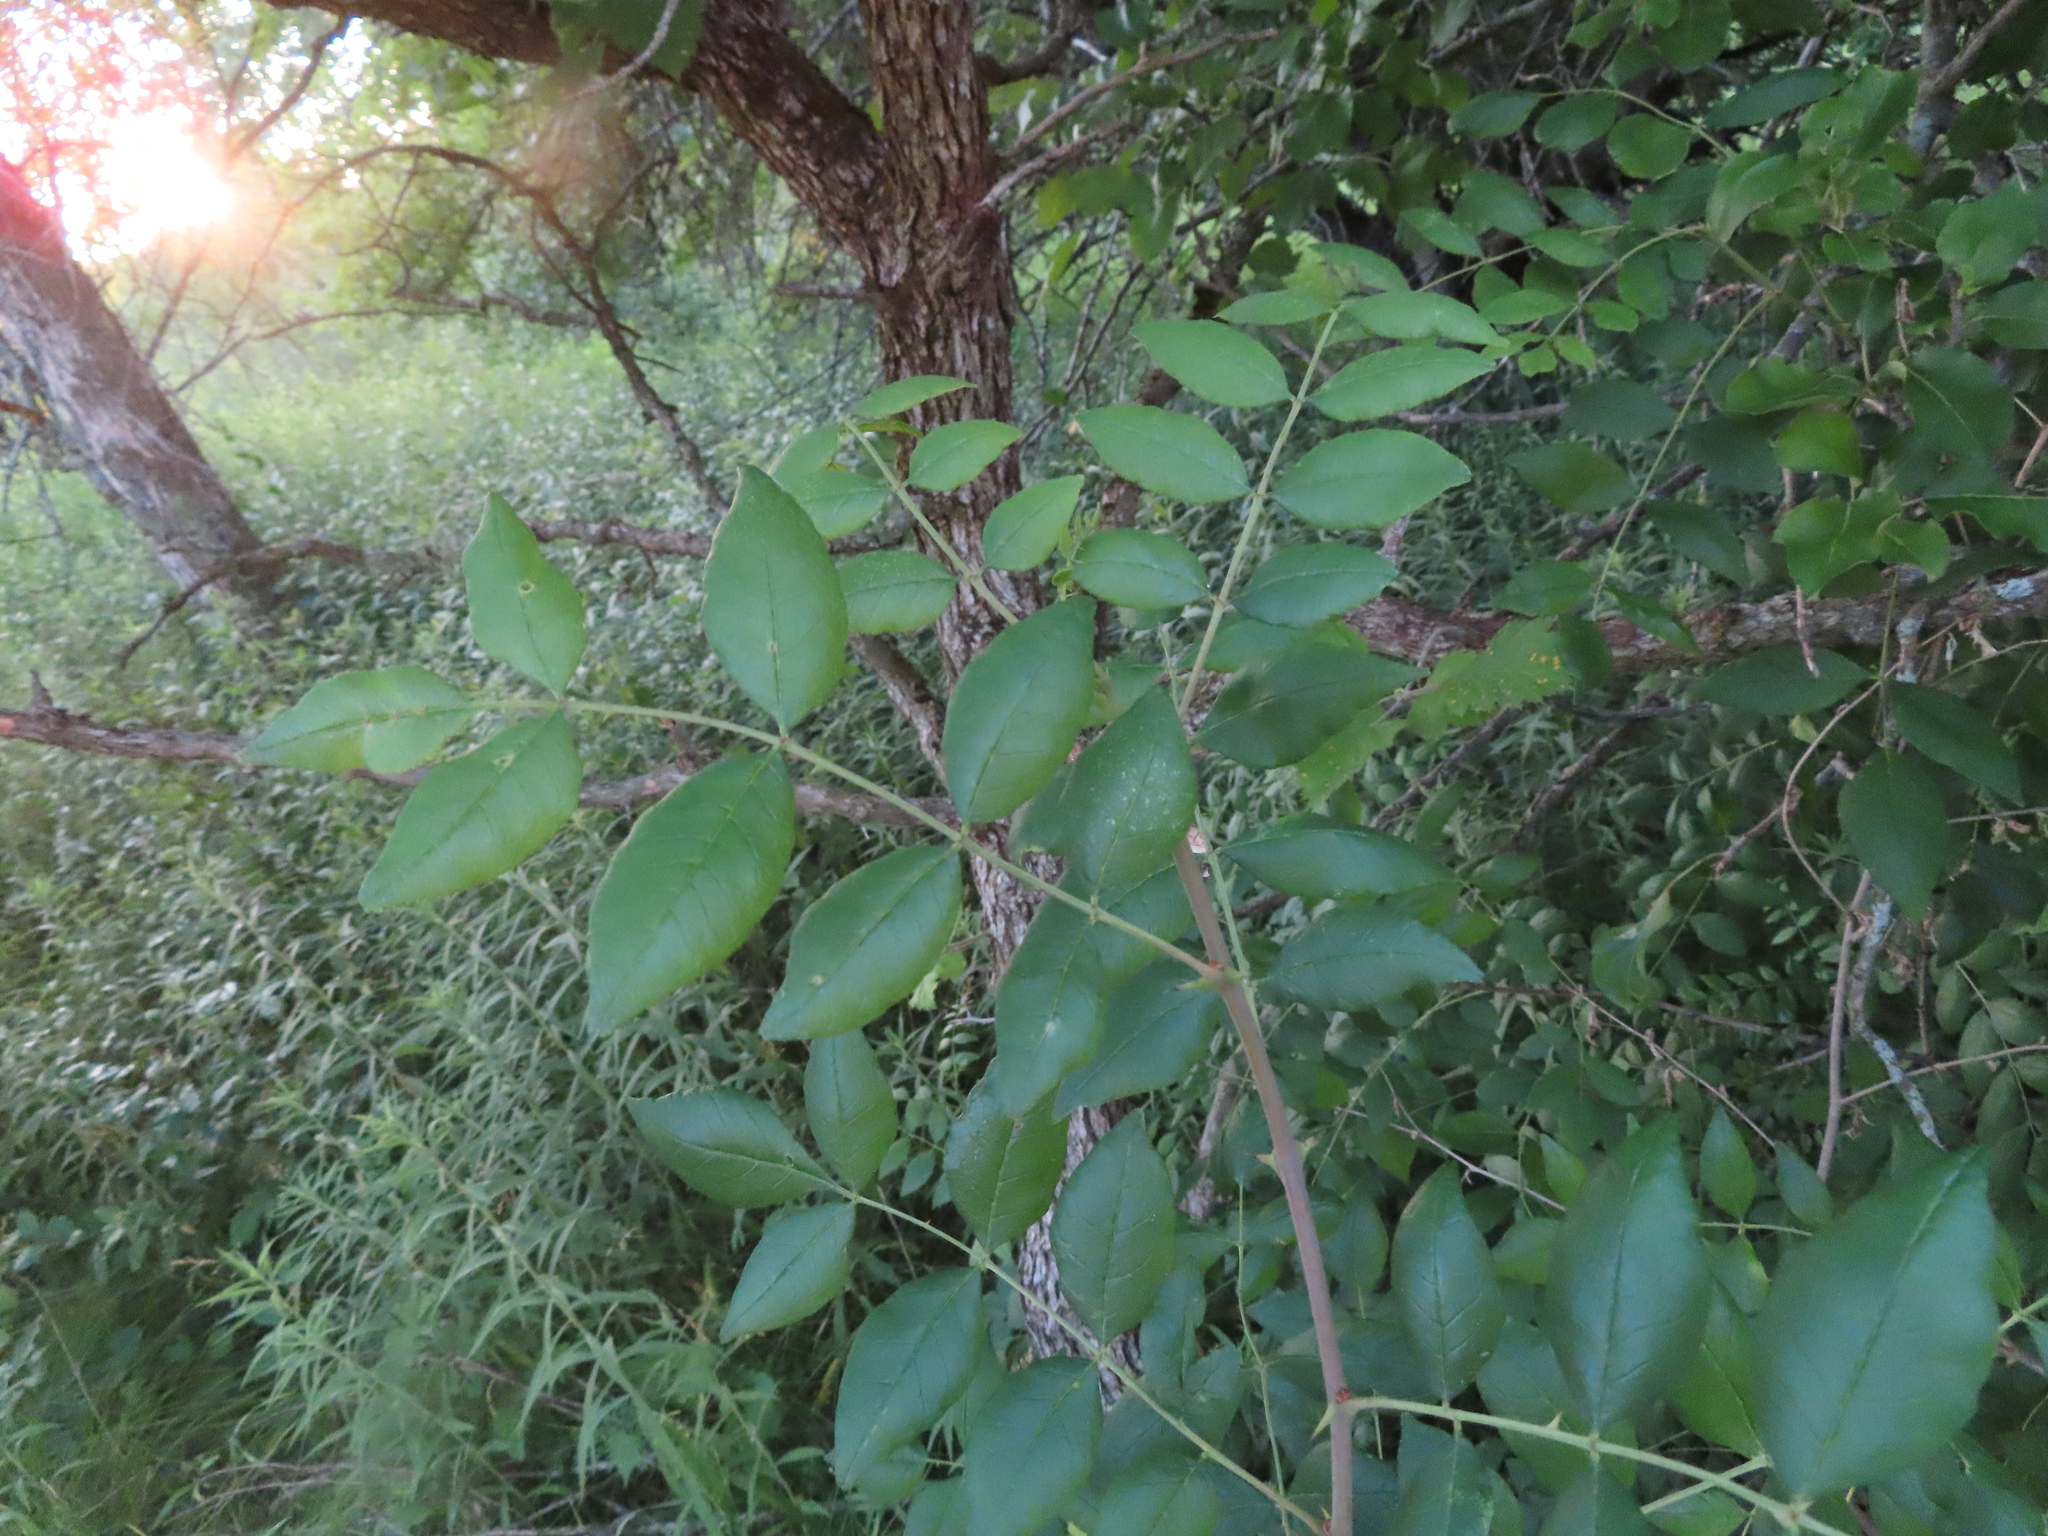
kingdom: Plantae
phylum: Tracheophyta
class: Magnoliopsida
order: Sapindales
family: Rutaceae
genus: Zanthoxylum
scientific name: Zanthoxylum americanum
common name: Northern prickly-ash
